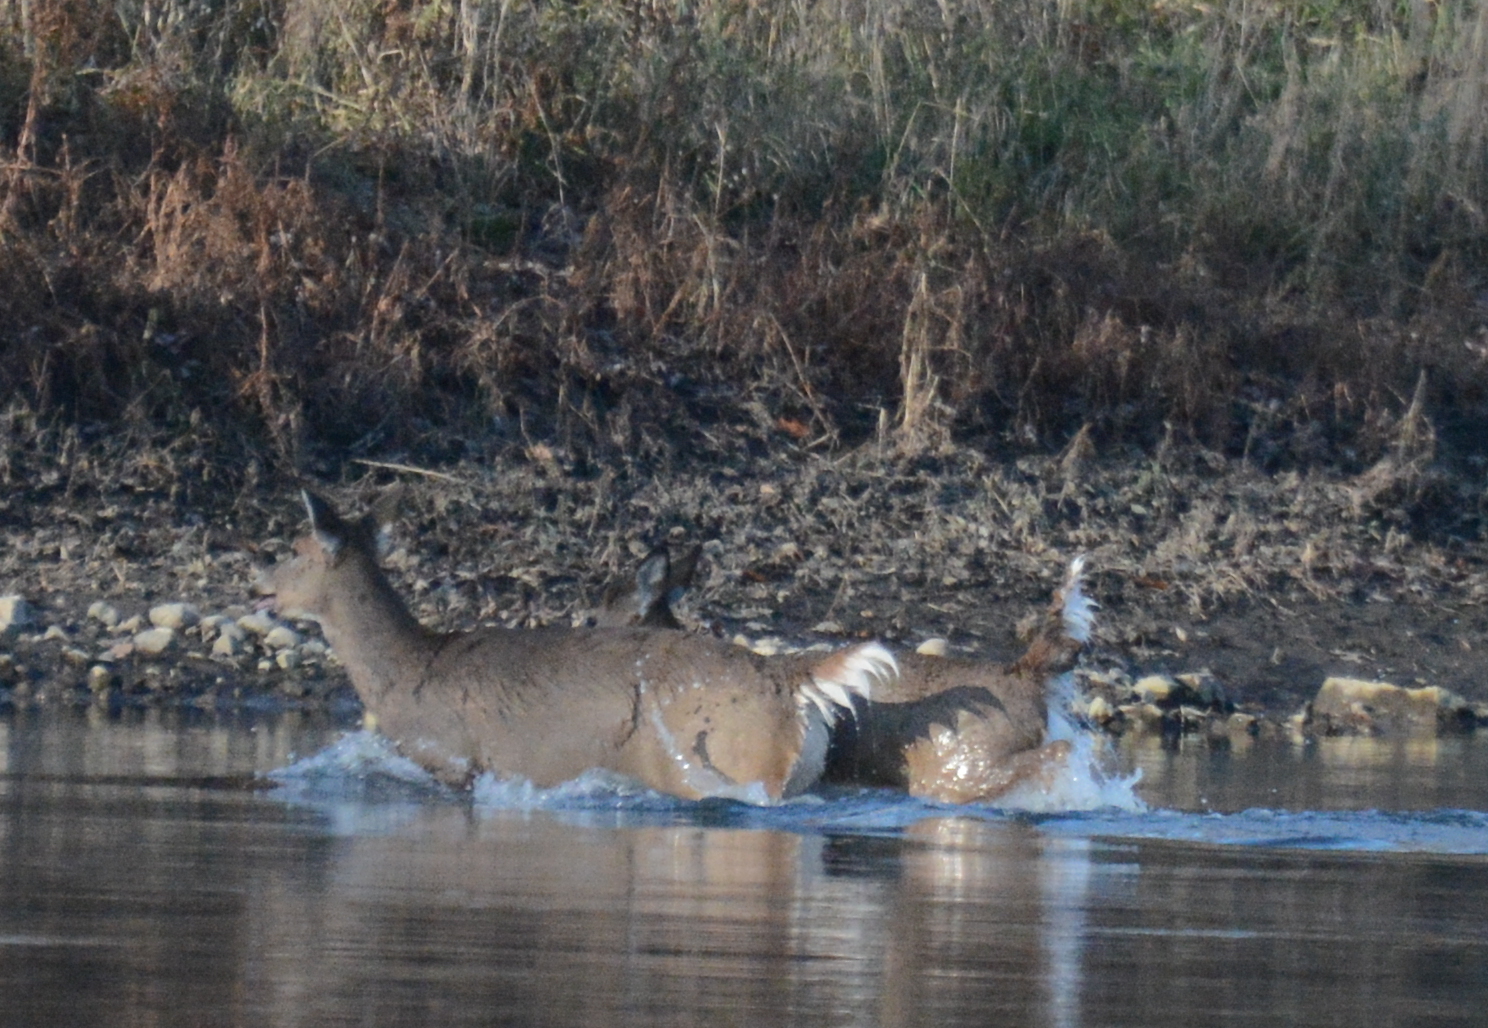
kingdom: Animalia
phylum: Chordata
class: Mammalia
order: Artiodactyla
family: Cervidae
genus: Odocoileus
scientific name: Odocoileus virginianus
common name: White-tailed deer
